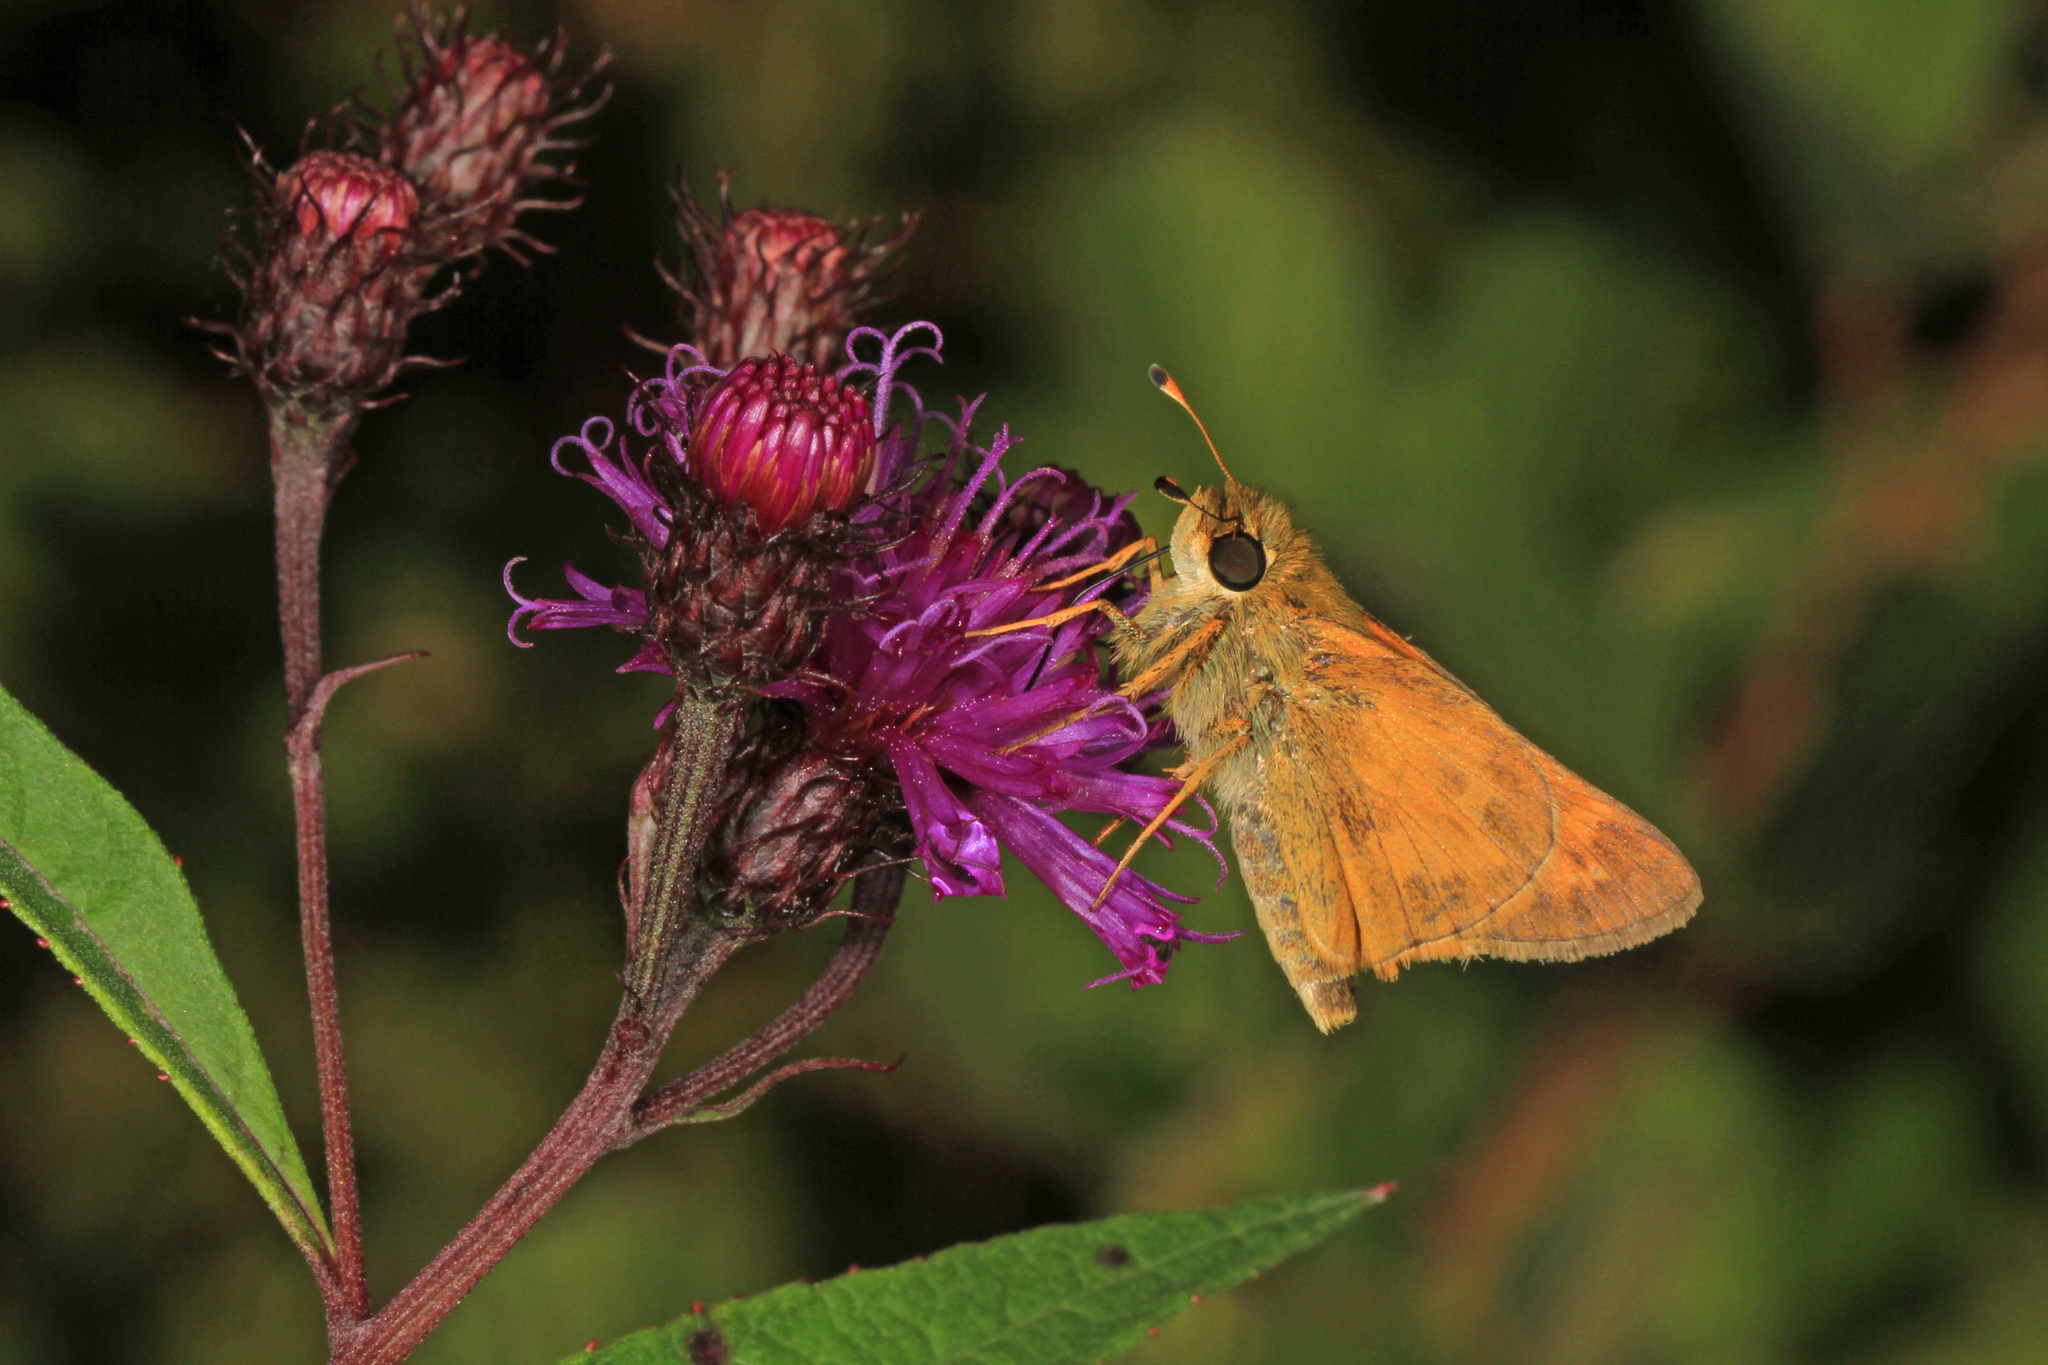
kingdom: Animalia
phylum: Arthropoda
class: Insecta
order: Lepidoptera
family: Hesperiidae
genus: Atalopedes
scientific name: Atalopedes
